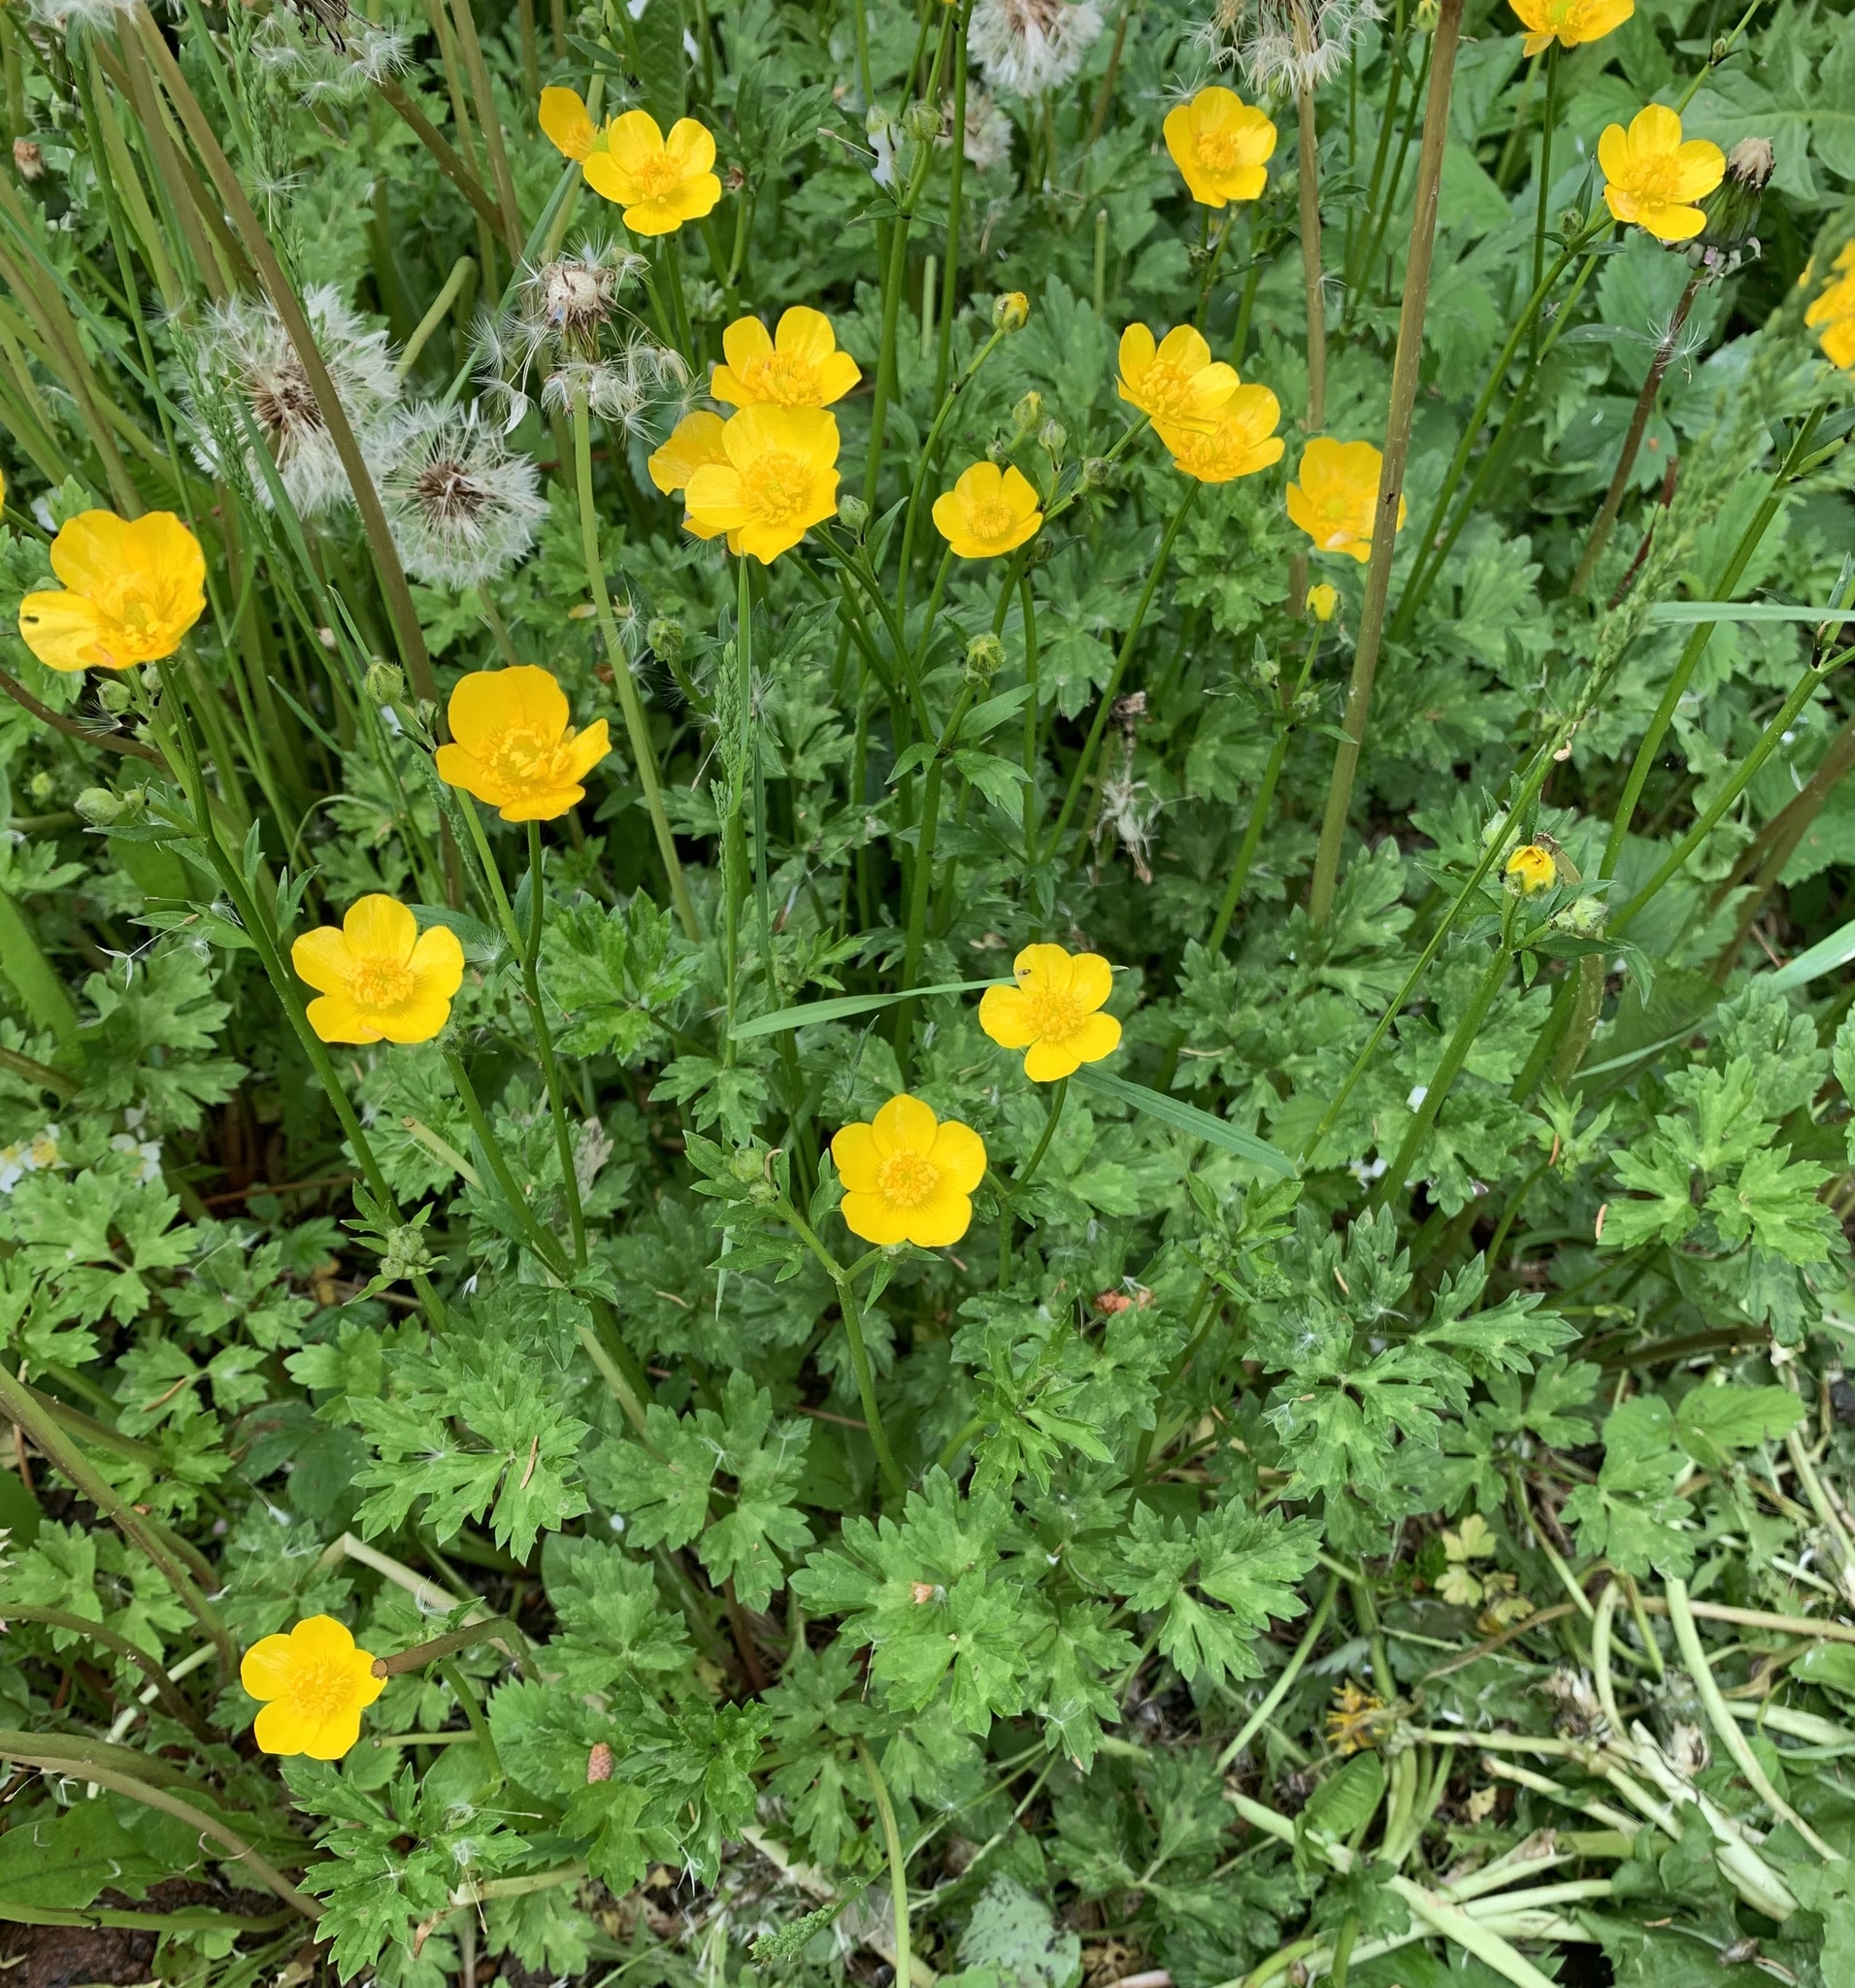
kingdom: Plantae
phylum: Tracheophyta
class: Magnoliopsida
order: Ranunculales
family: Ranunculaceae
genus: Ranunculus
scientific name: Ranunculus repens
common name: Creeping buttercup
